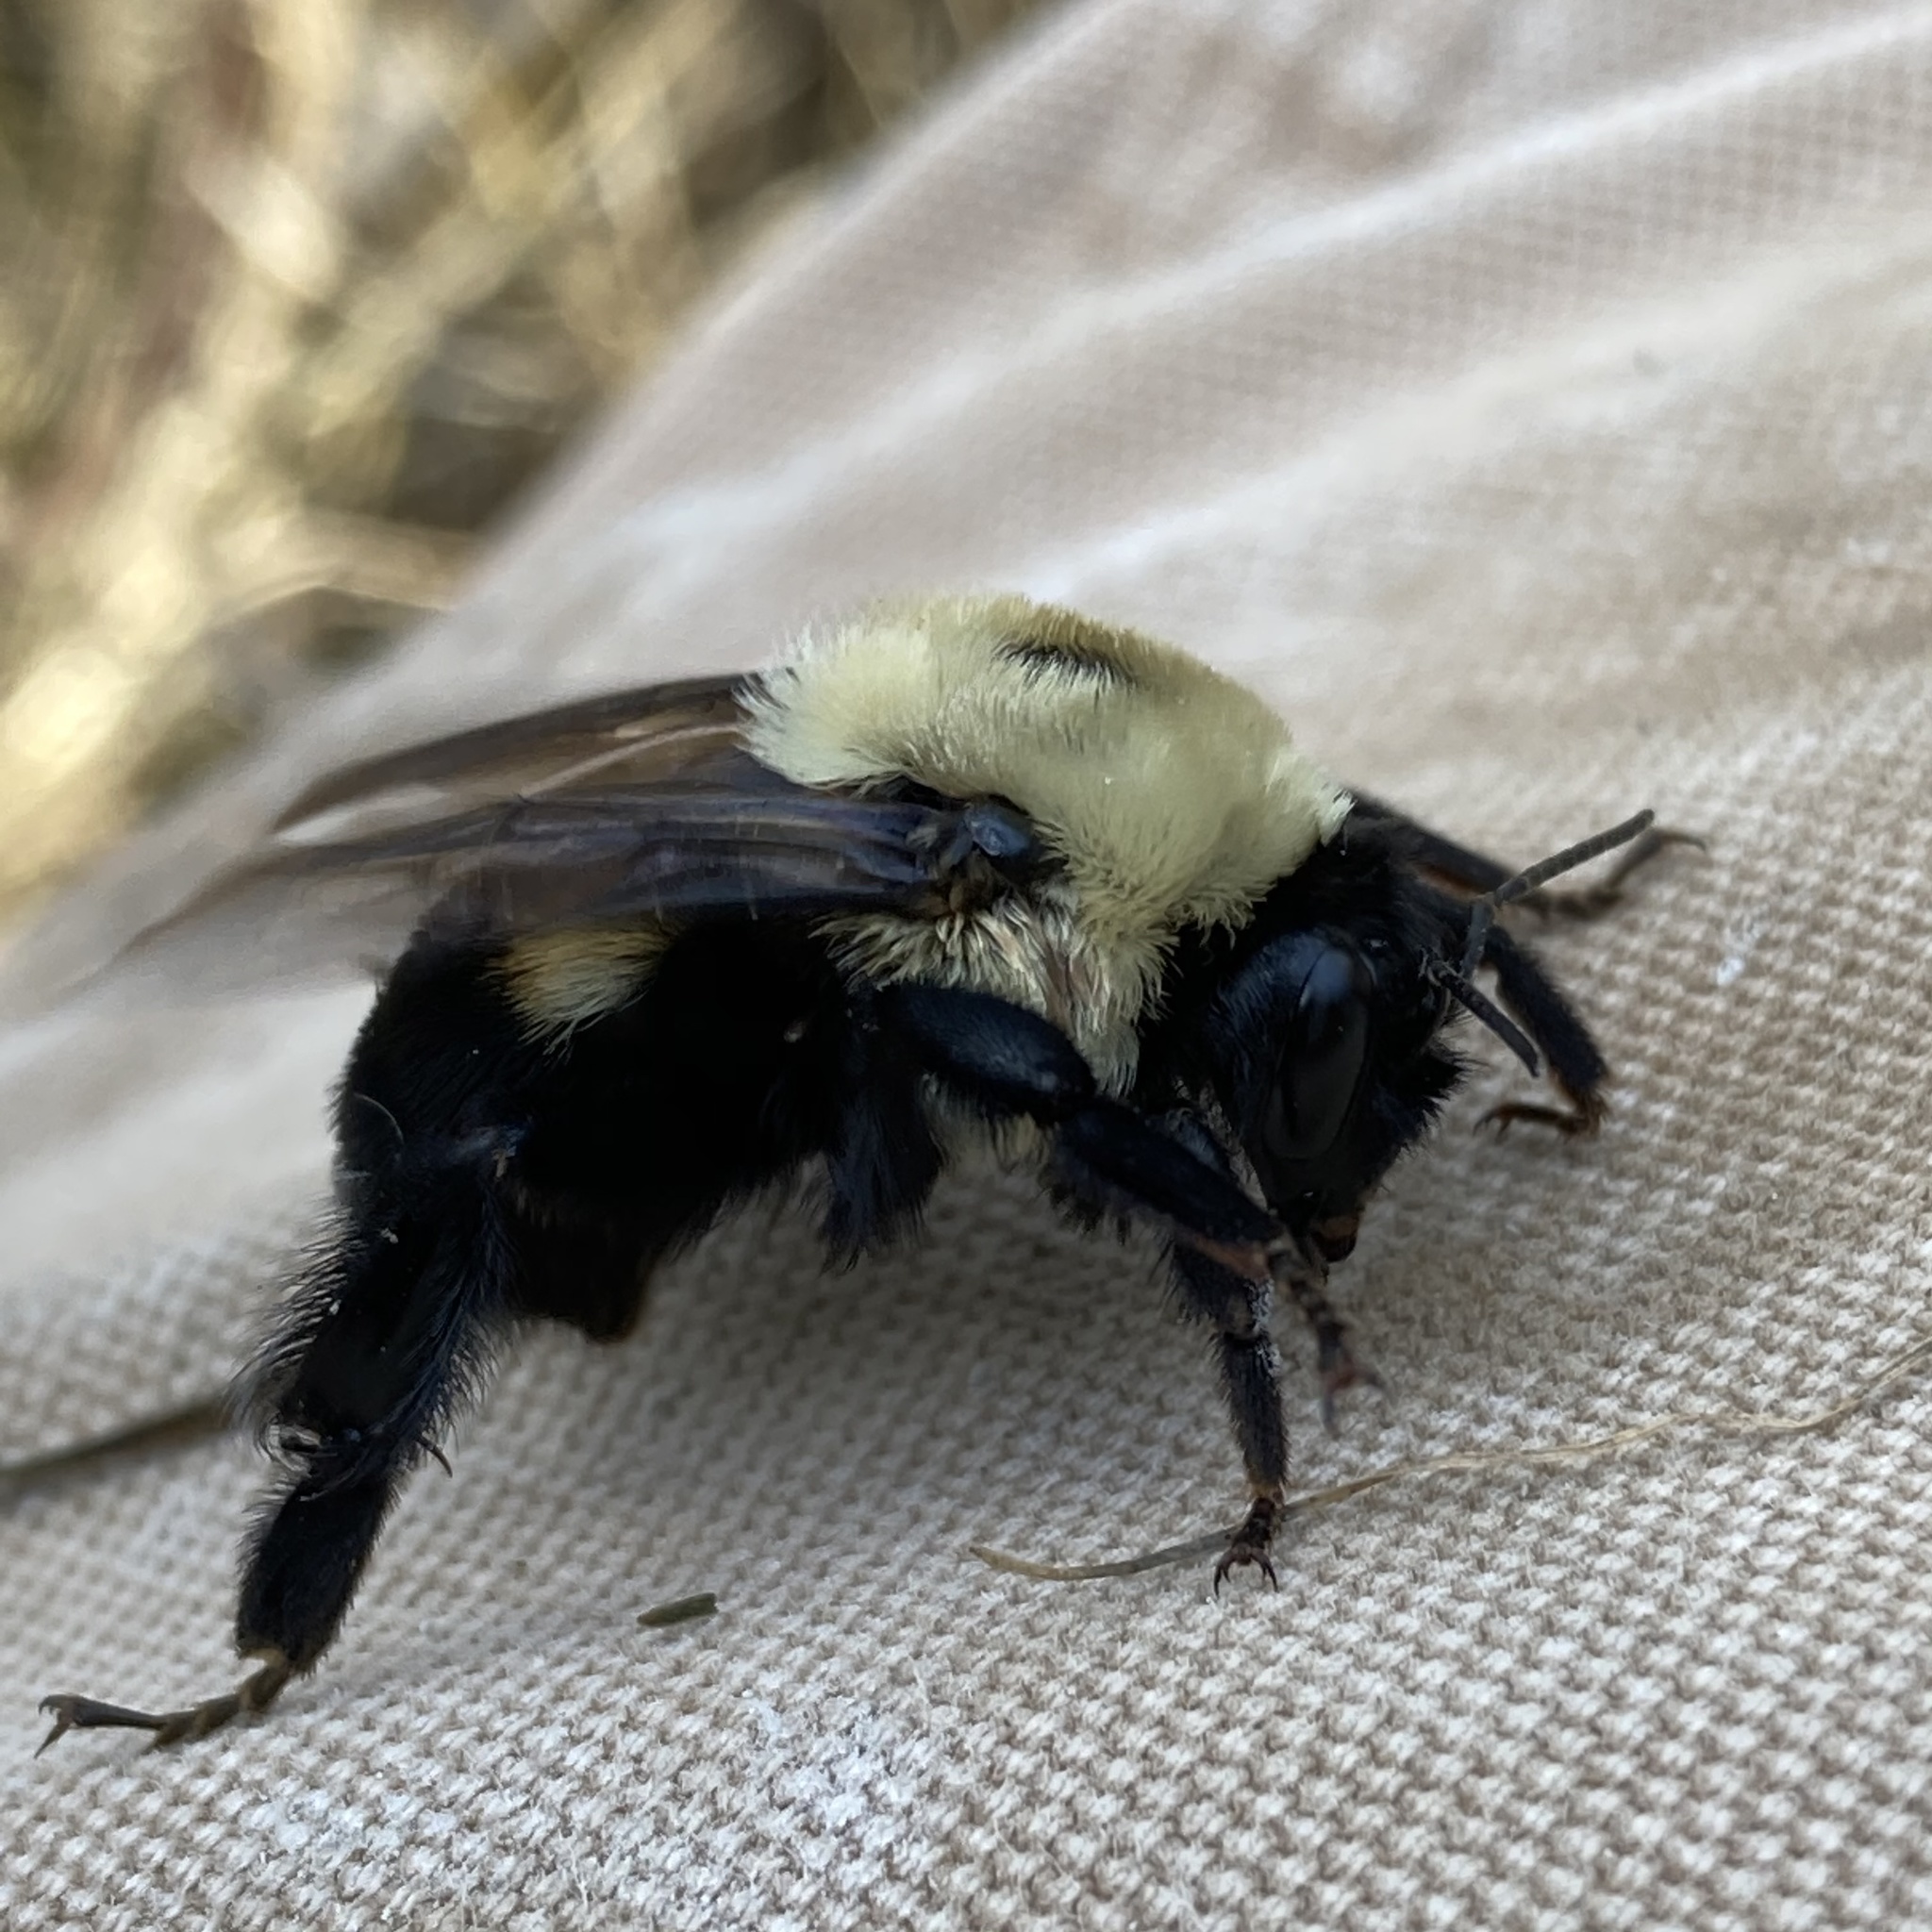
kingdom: Animalia
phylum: Arthropoda
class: Insecta
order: Hymenoptera
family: Apidae
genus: Bombus
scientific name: Bombus griseocollis
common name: Brown-belted bumble bee
